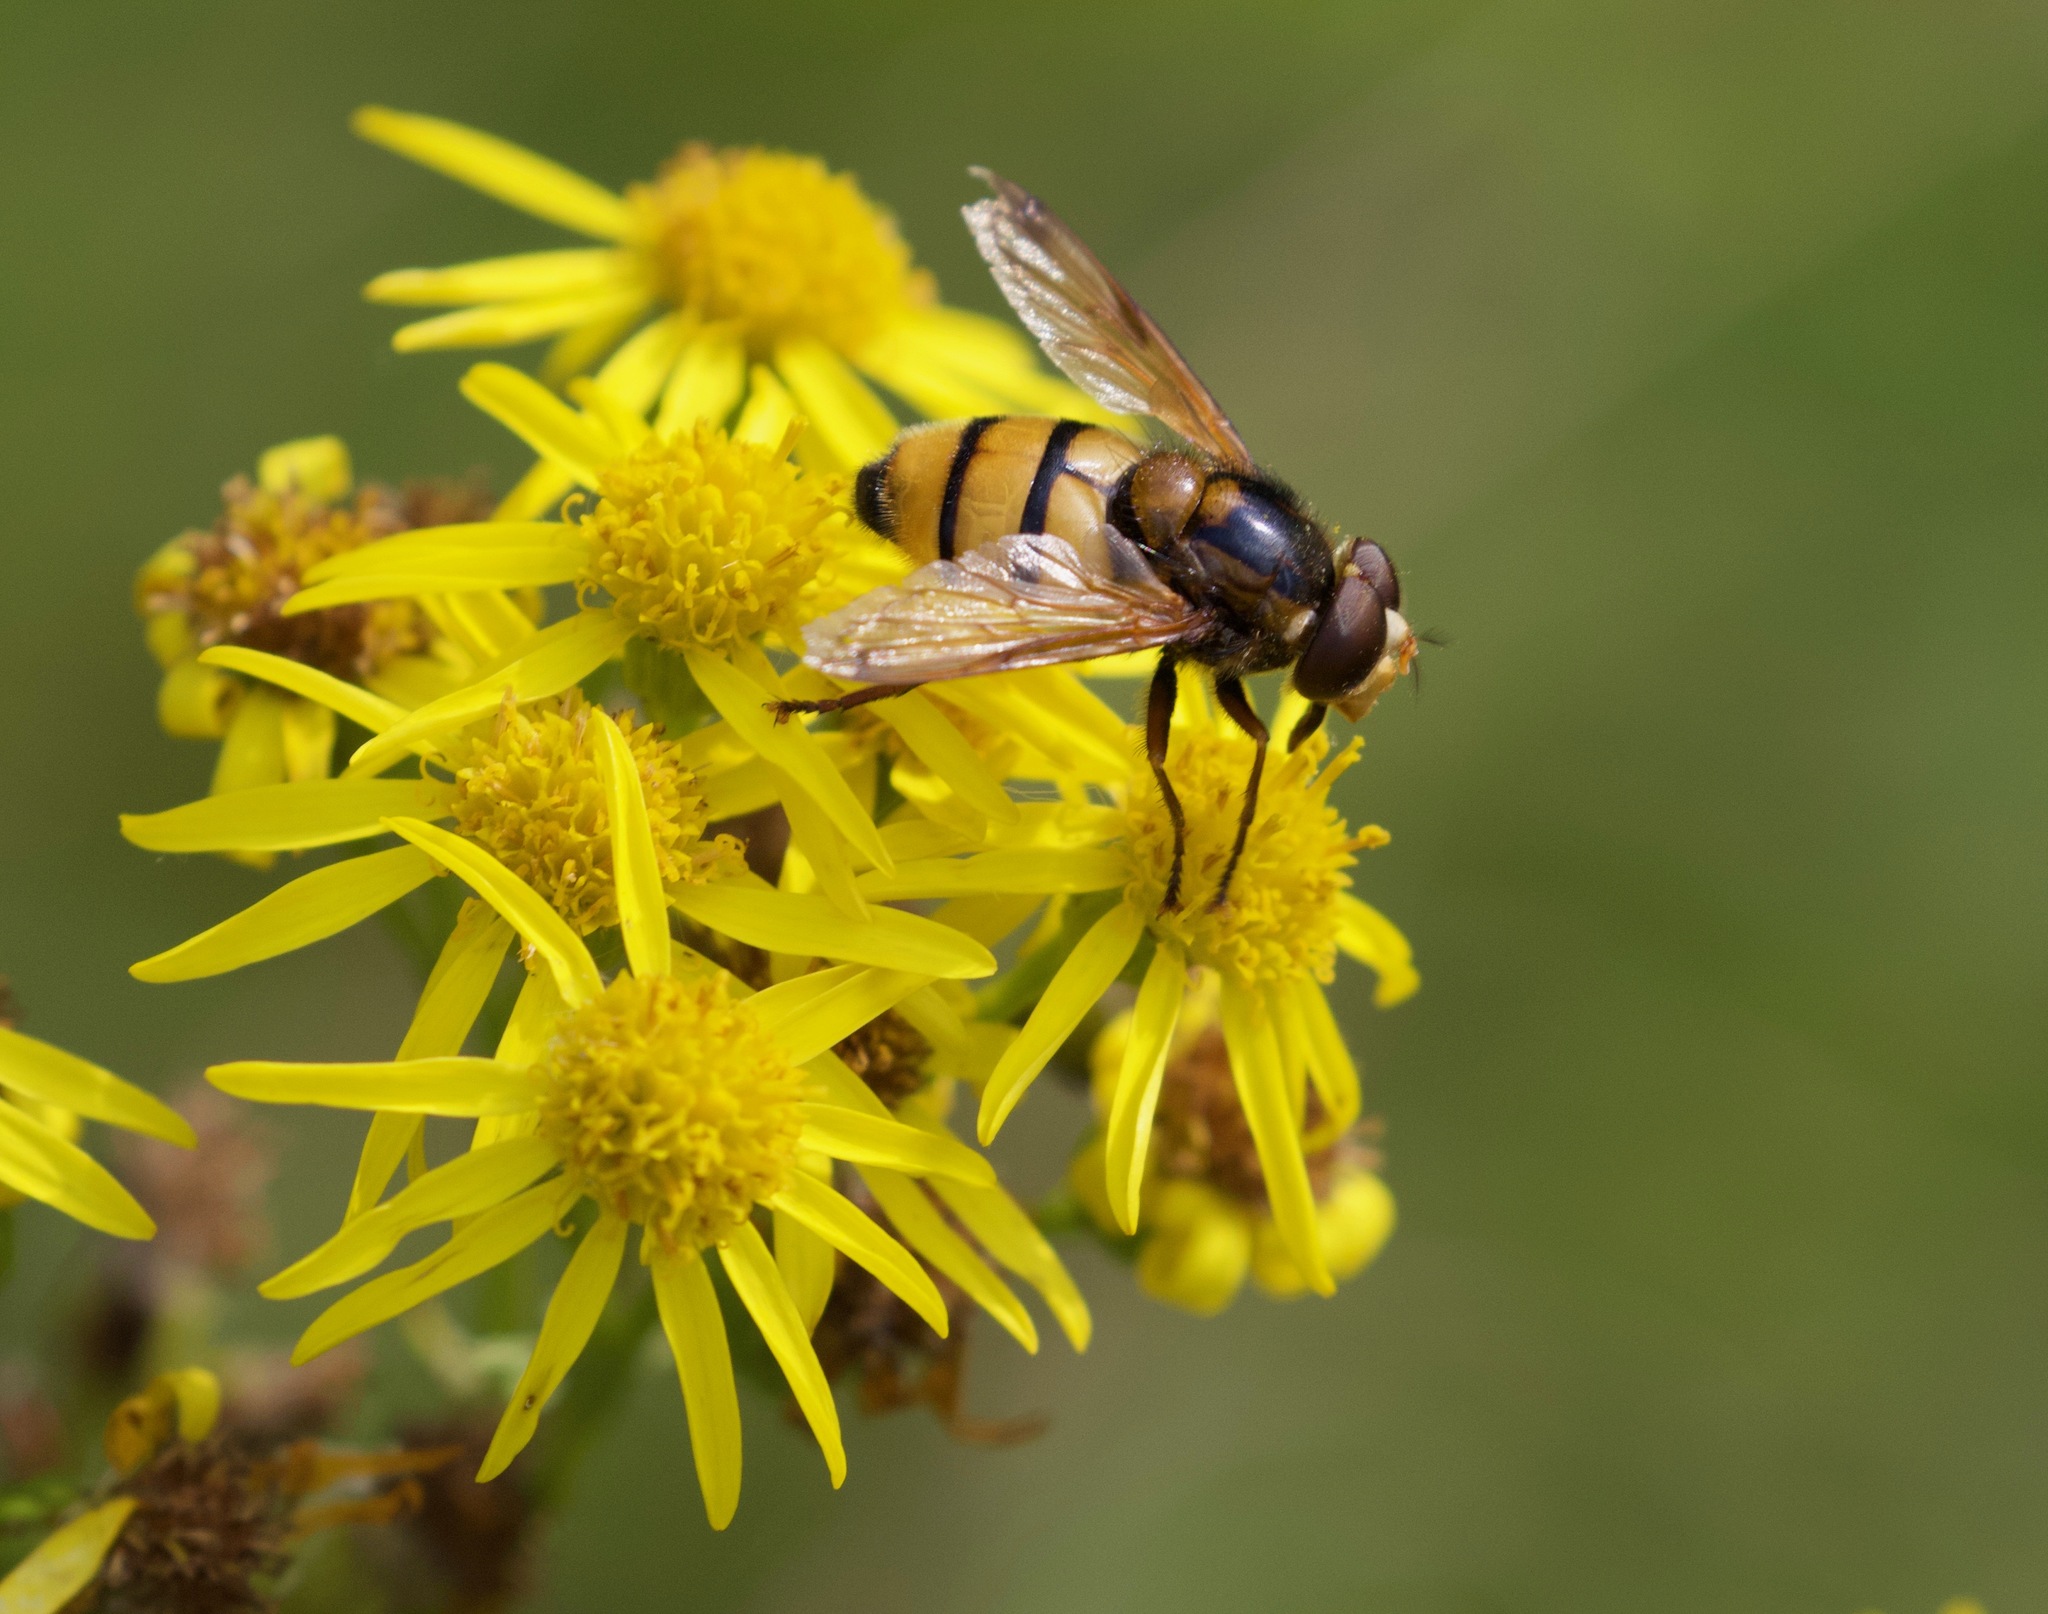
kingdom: Animalia
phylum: Arthropoda
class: Insecta
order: Diptera
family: Syrphidae
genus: Volucella
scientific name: Volucella inanis
